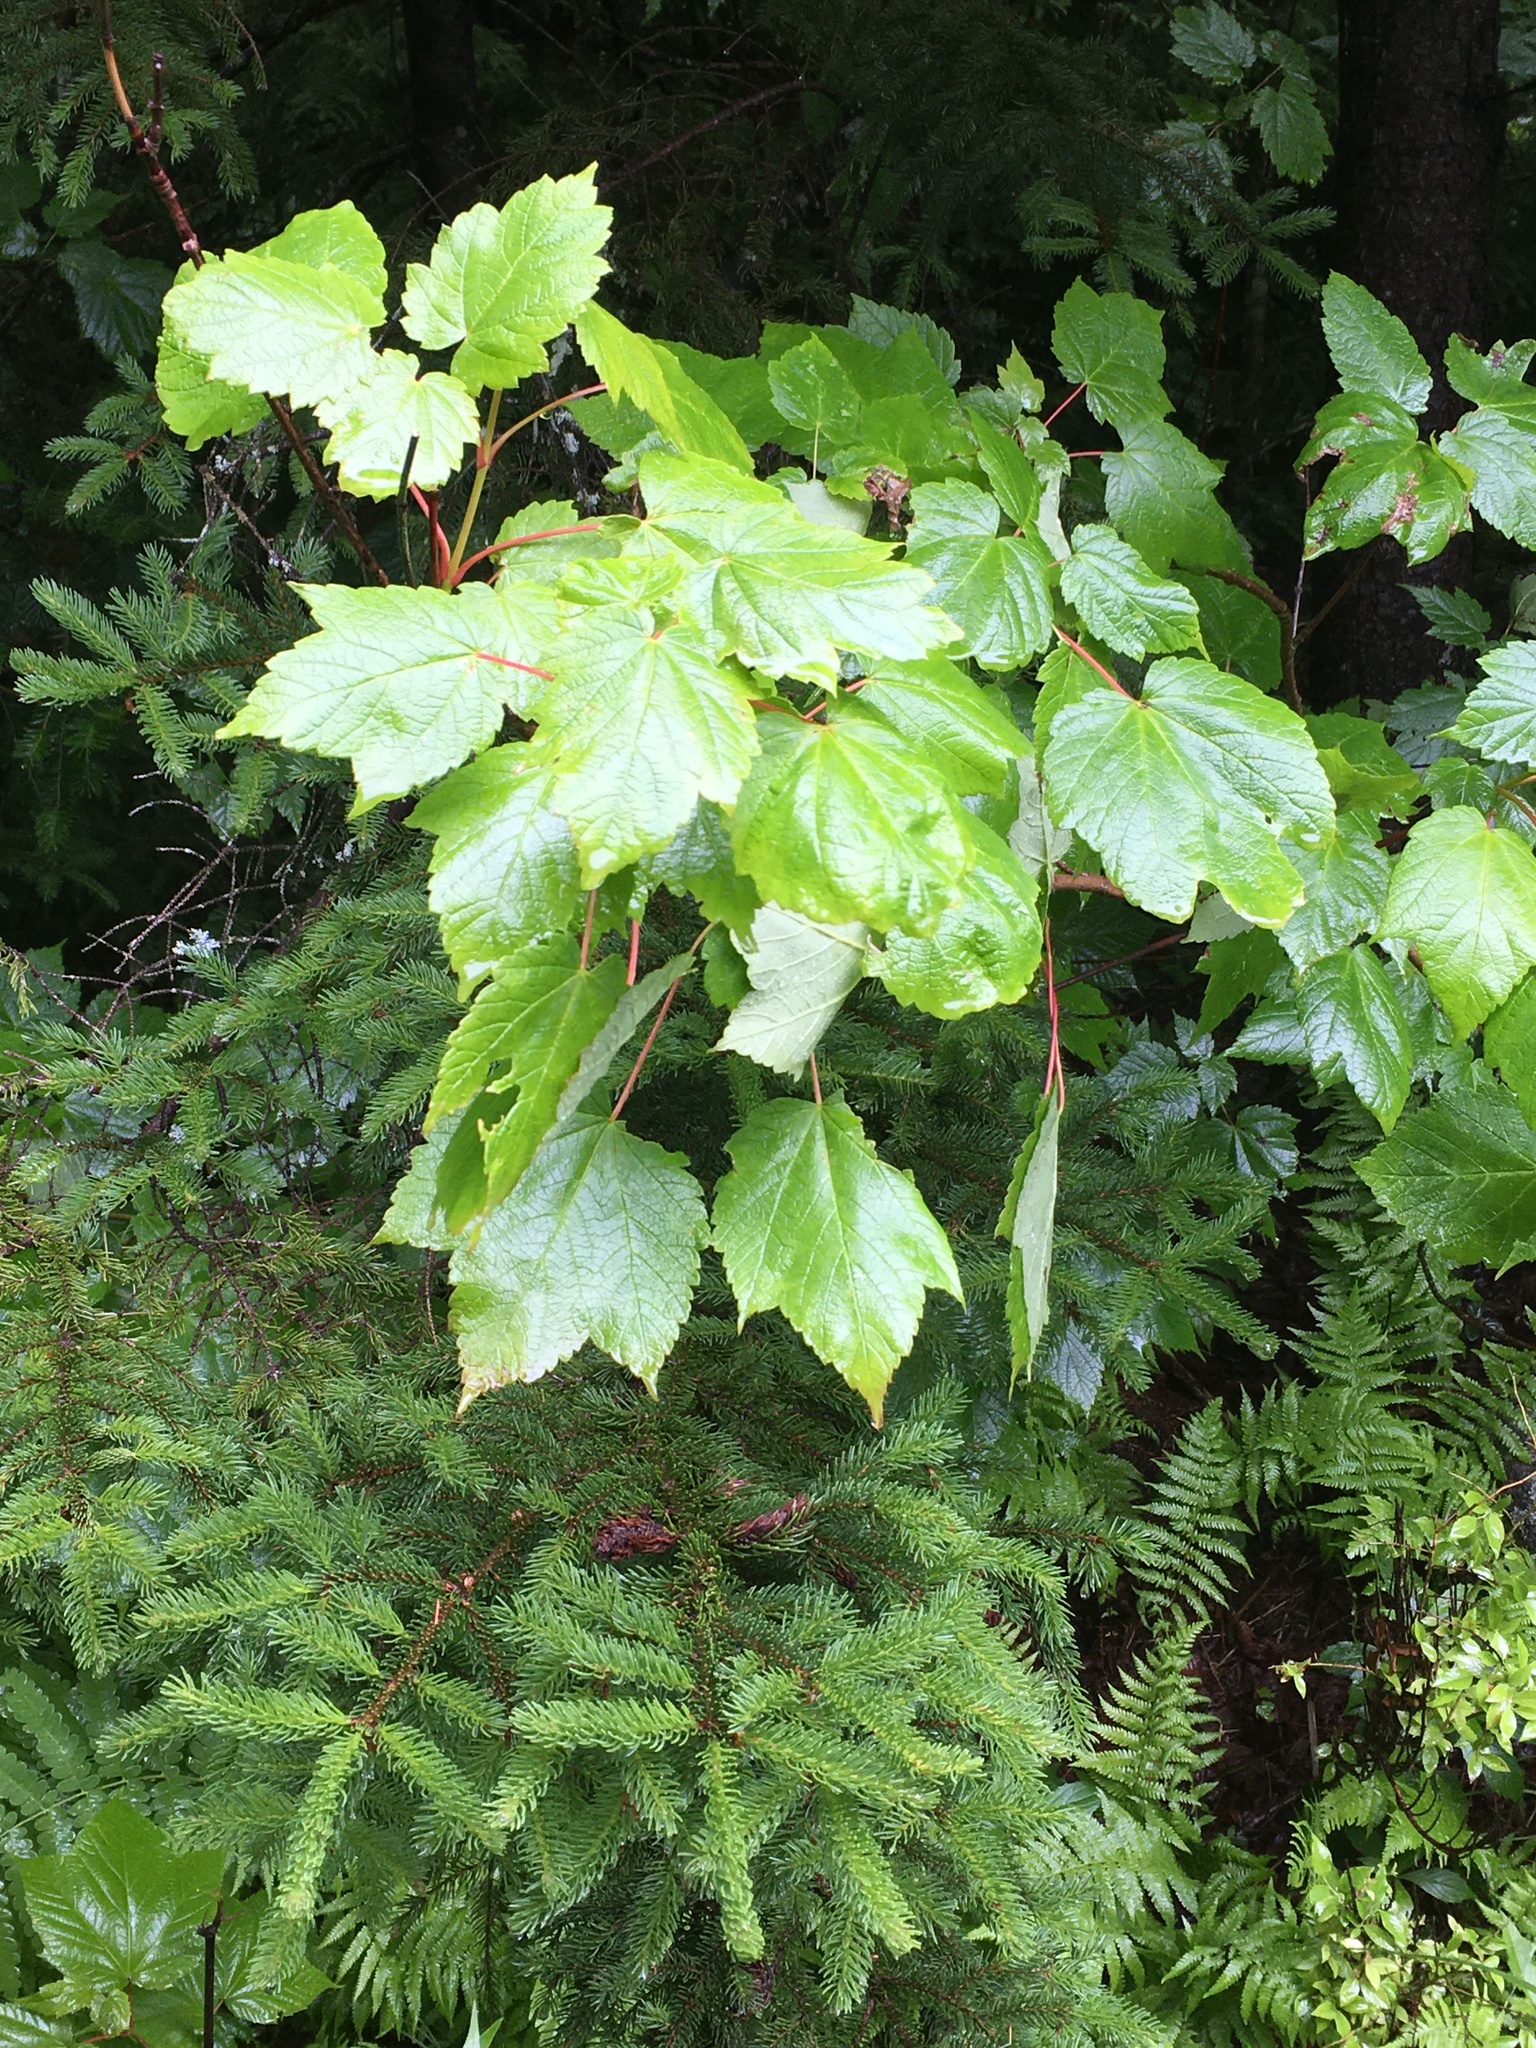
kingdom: Plantae
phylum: Tracheophyta
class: Magnoliopsida
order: Sapindales
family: Sapindaceae
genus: Acer
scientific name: Acer spicatum
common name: Mountain maple
